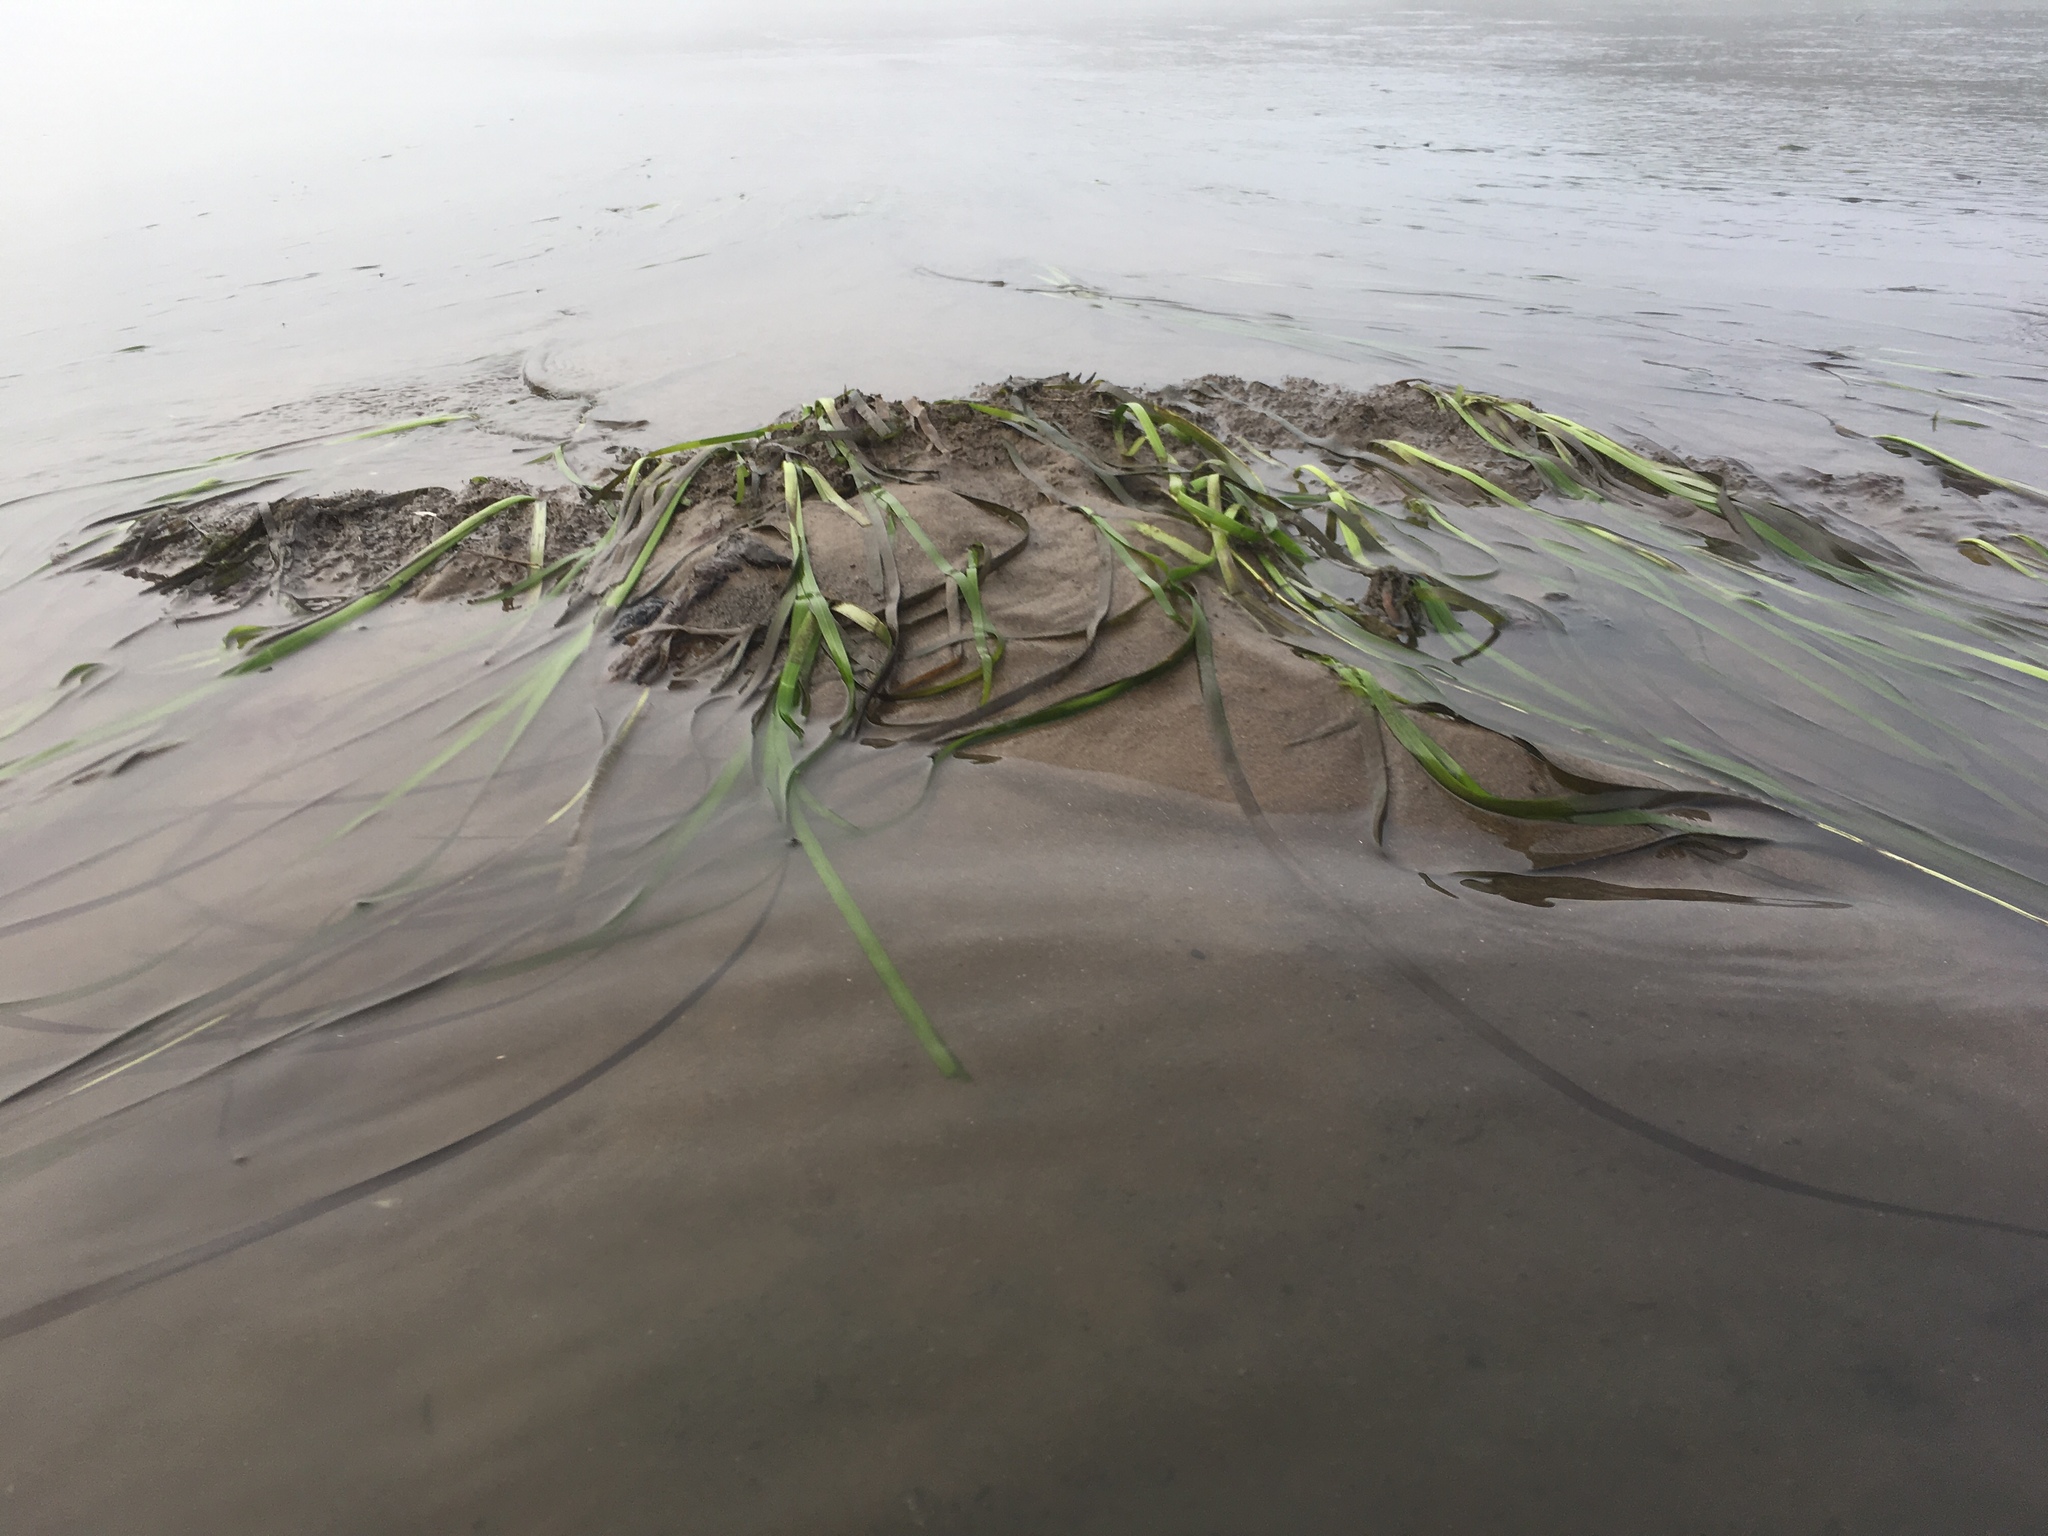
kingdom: Plantae
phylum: Tracheophyta
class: Liliopsida
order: Alismatales
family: Zosteraceae
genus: Zostera
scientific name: Zostera marina
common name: Eelgrass
